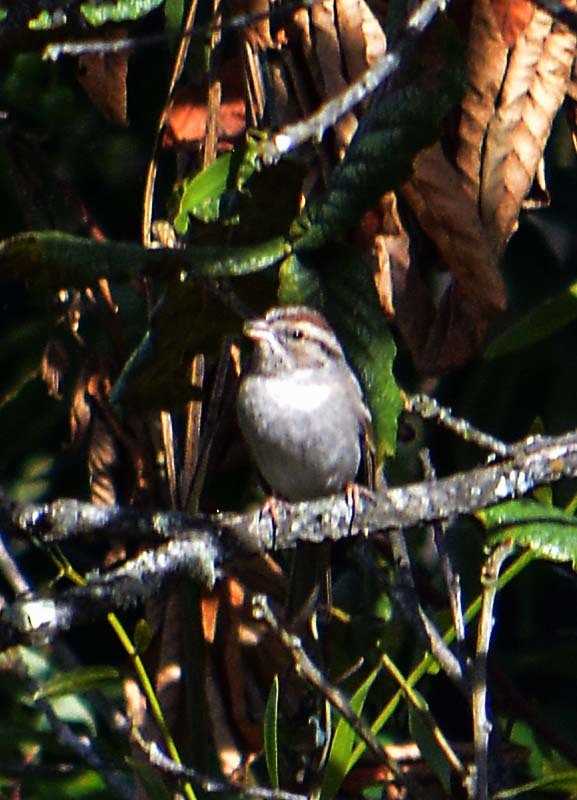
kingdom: Animalia
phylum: Chordata
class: Aves
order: Passeriformes
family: Passerellidae
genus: Spizella
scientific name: Spizella passerina
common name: Chipping sparrow
